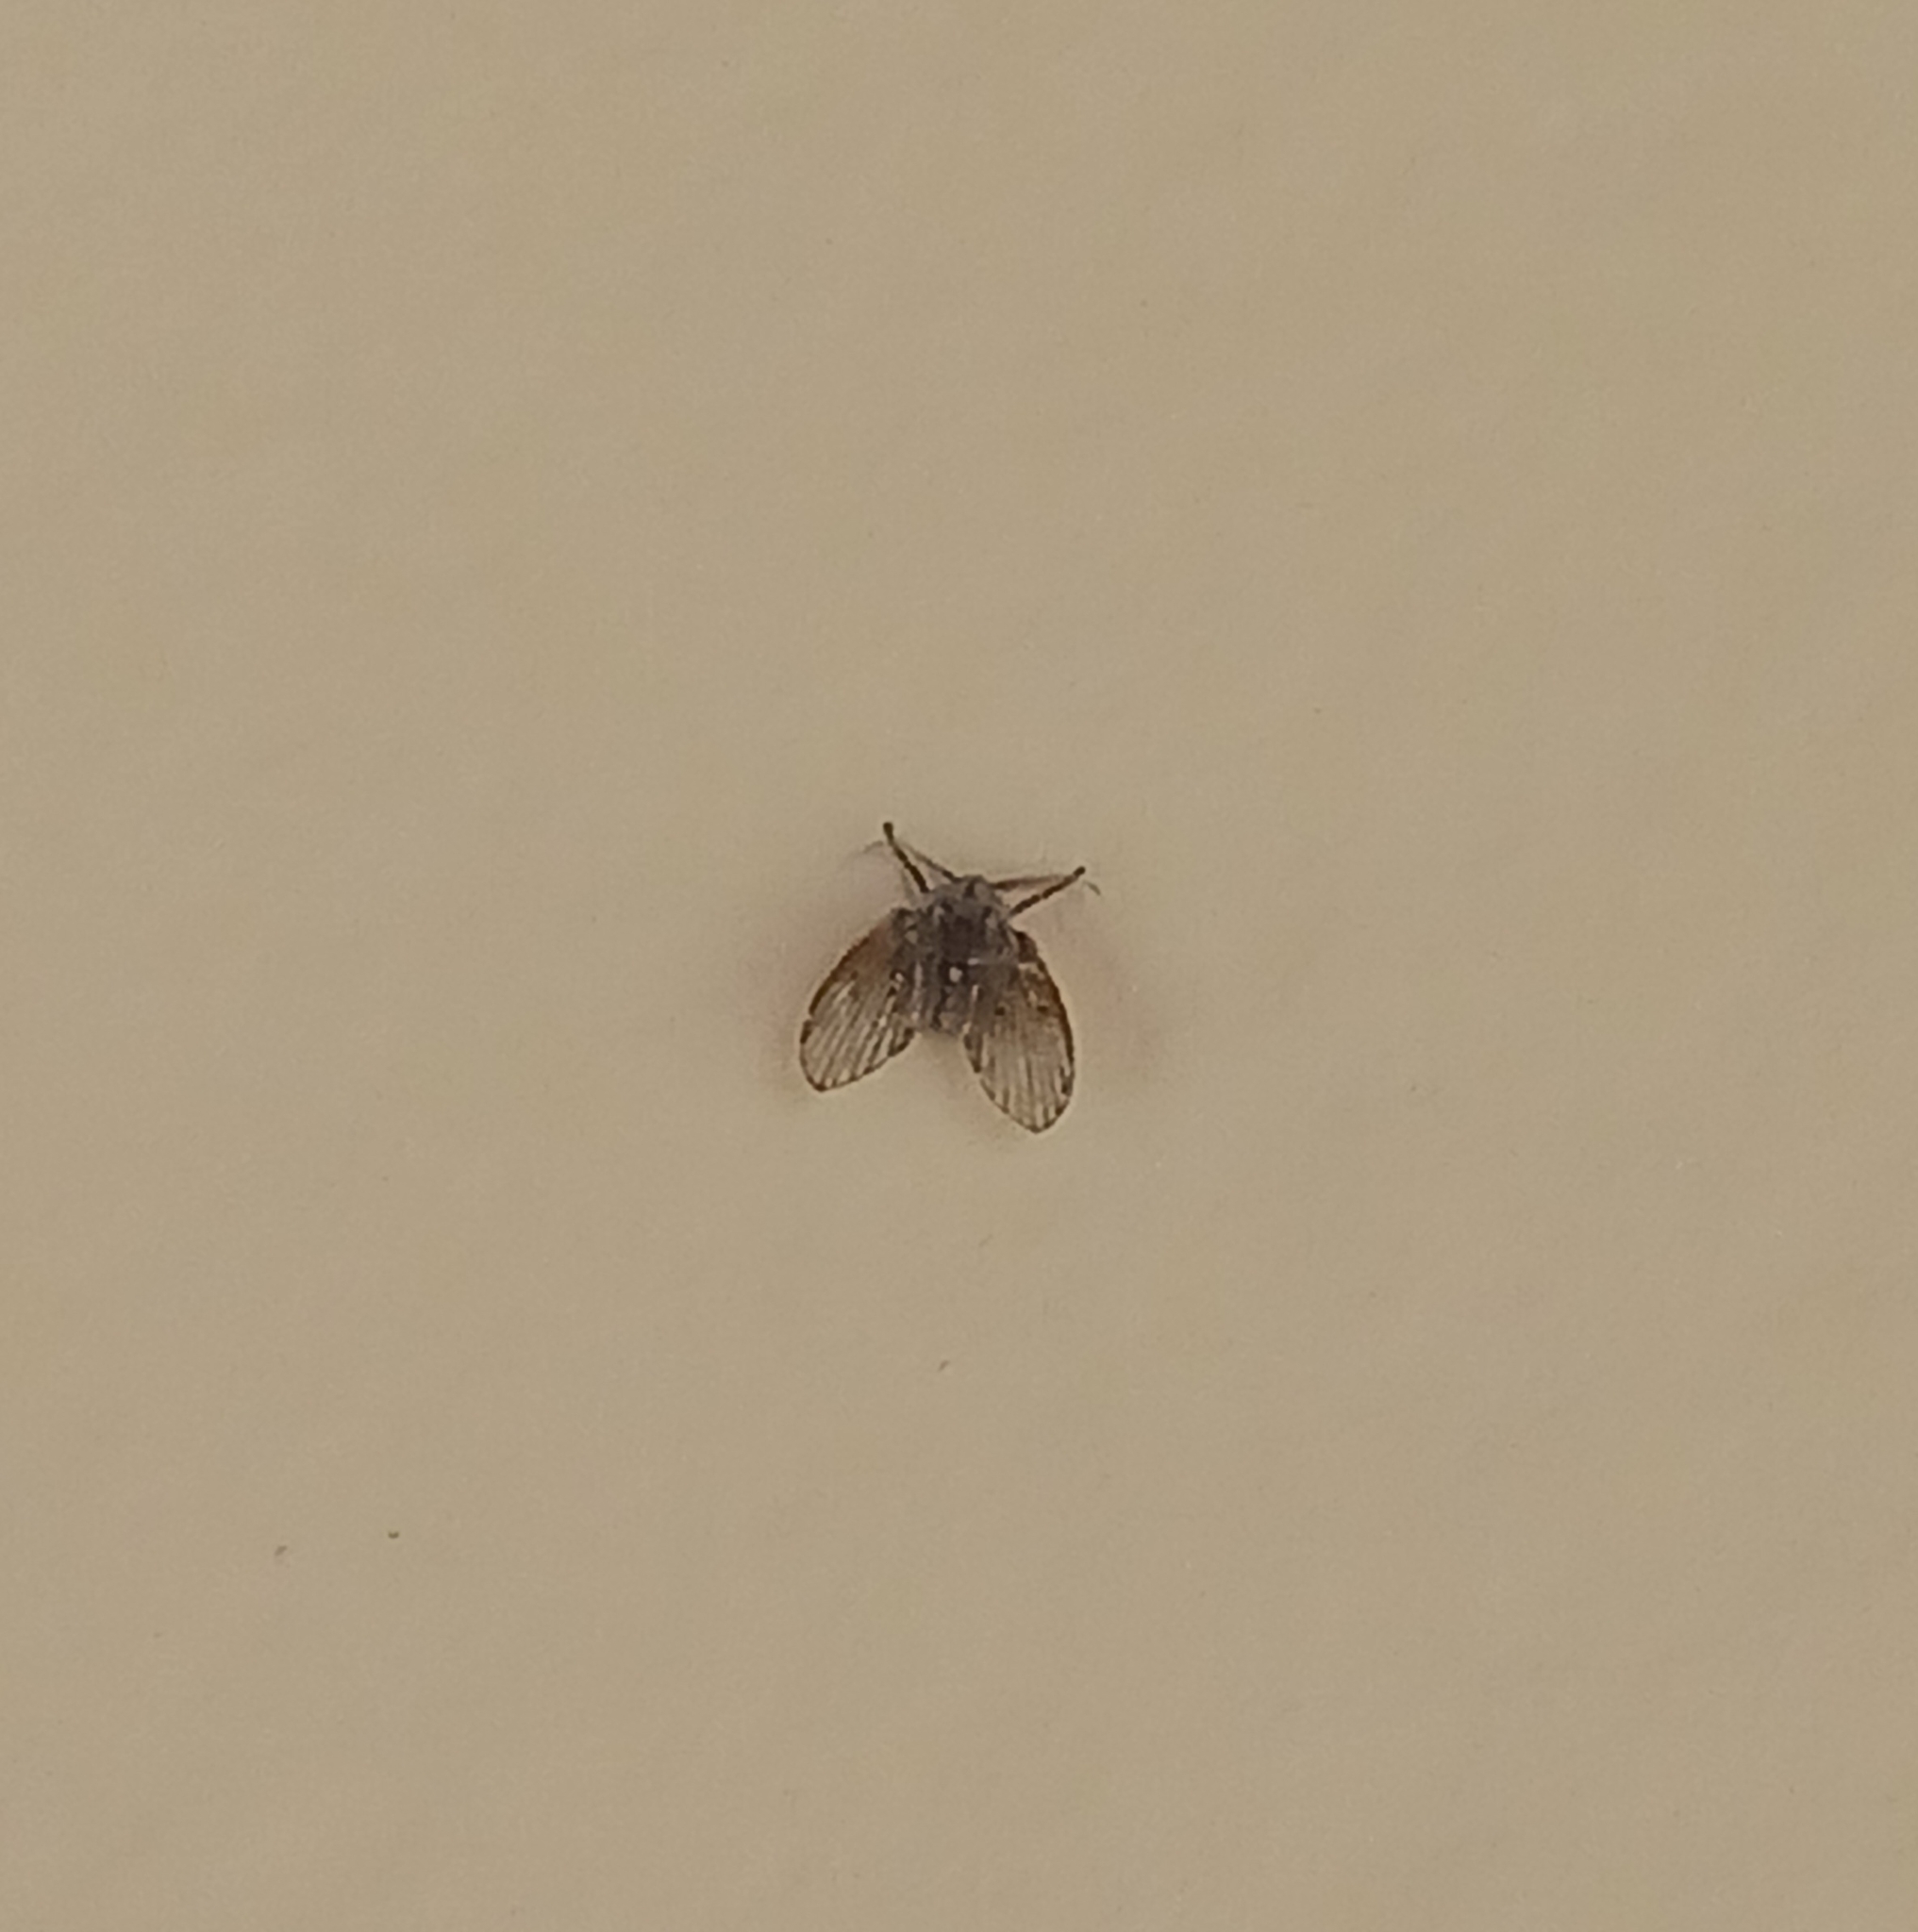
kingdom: Animalia
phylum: Arthropoda
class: Insecta
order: Diptera
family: Psychodidae
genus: Clogmia
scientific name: Clogmia albipunctatus
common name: White-spotted moth fly
